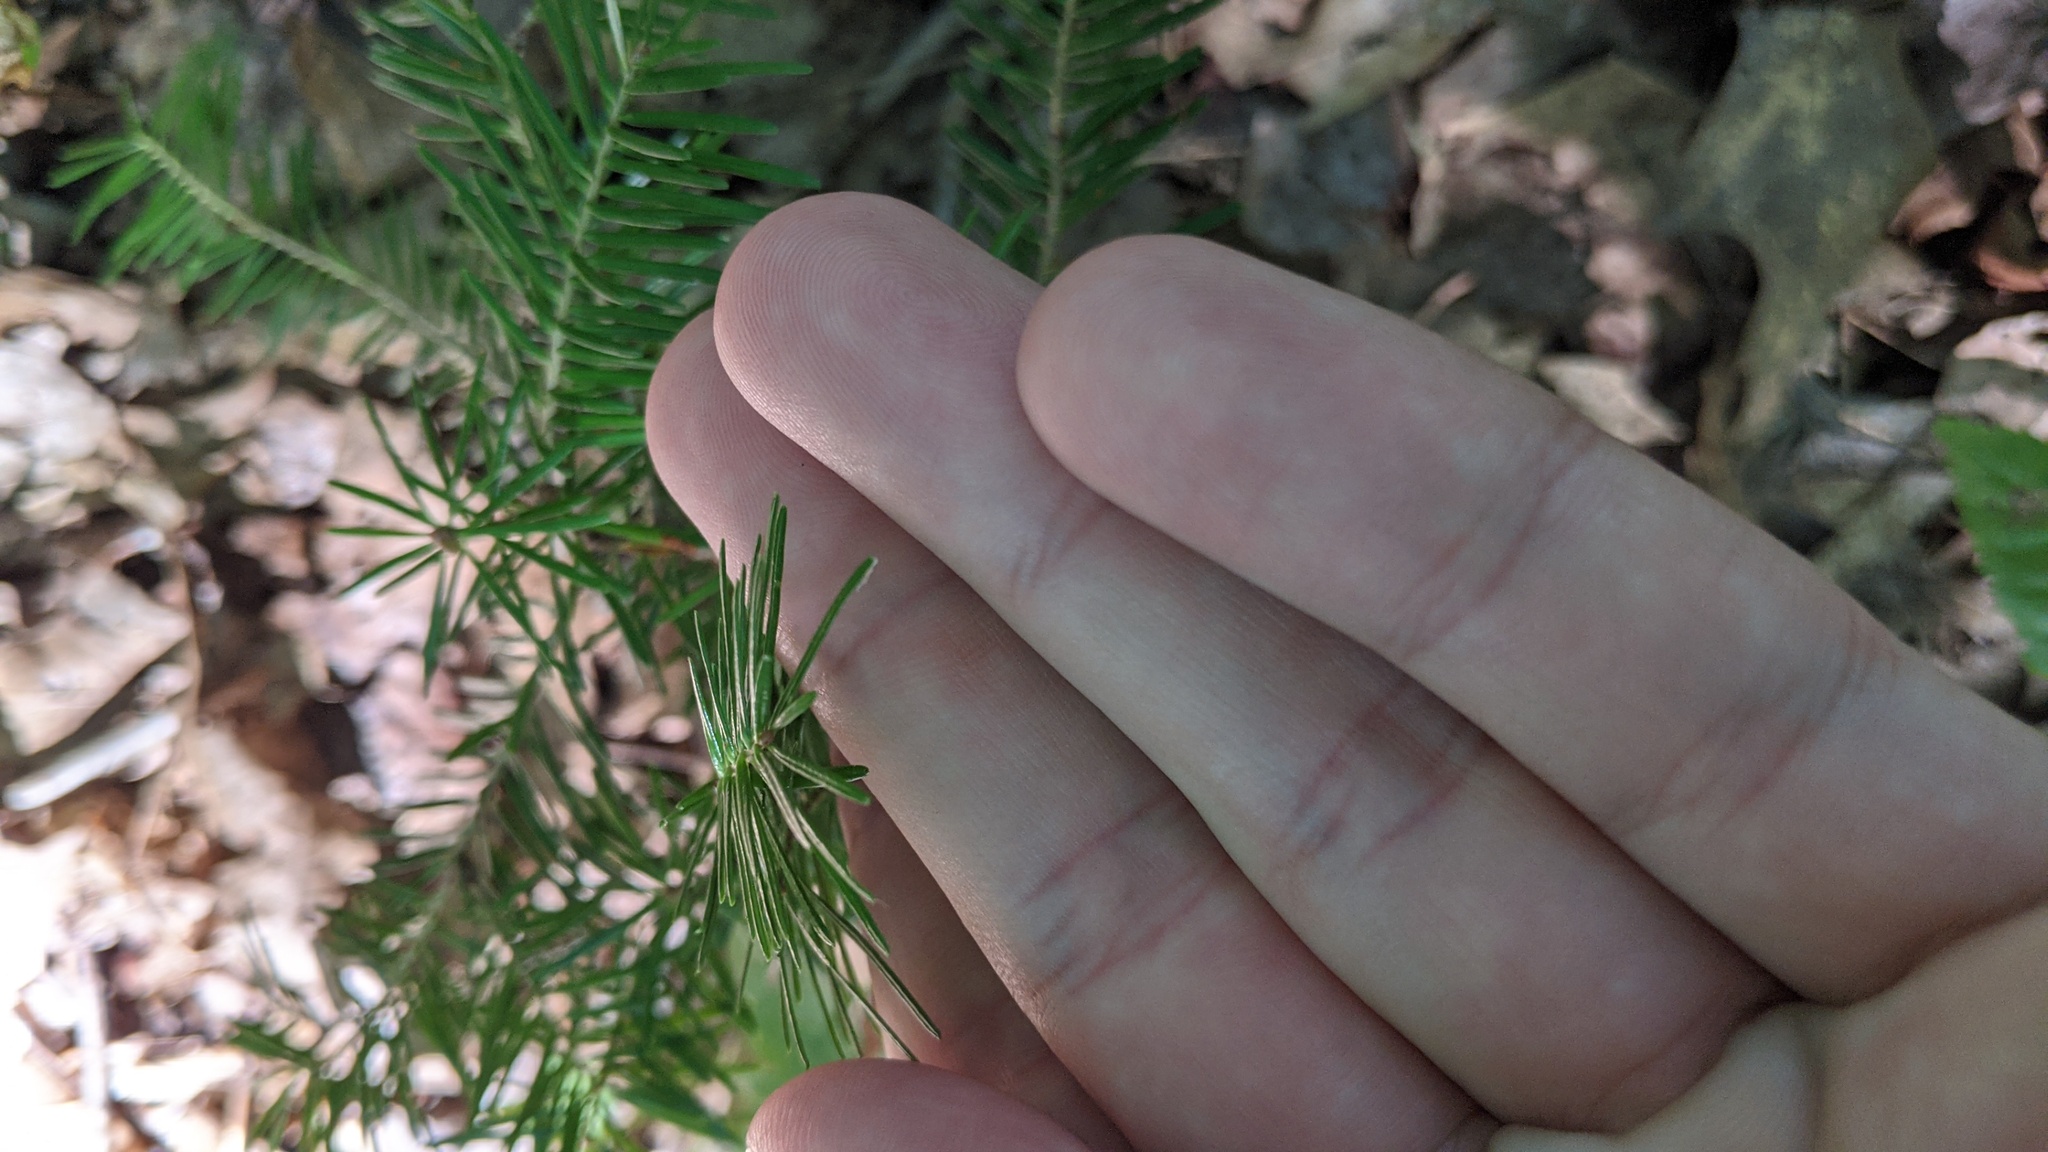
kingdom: Plantae
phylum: Tracheophyta
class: Pinopsida
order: Pinales
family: Pinaceae
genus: Abies
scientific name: Abies balsamea
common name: Balsam fir
